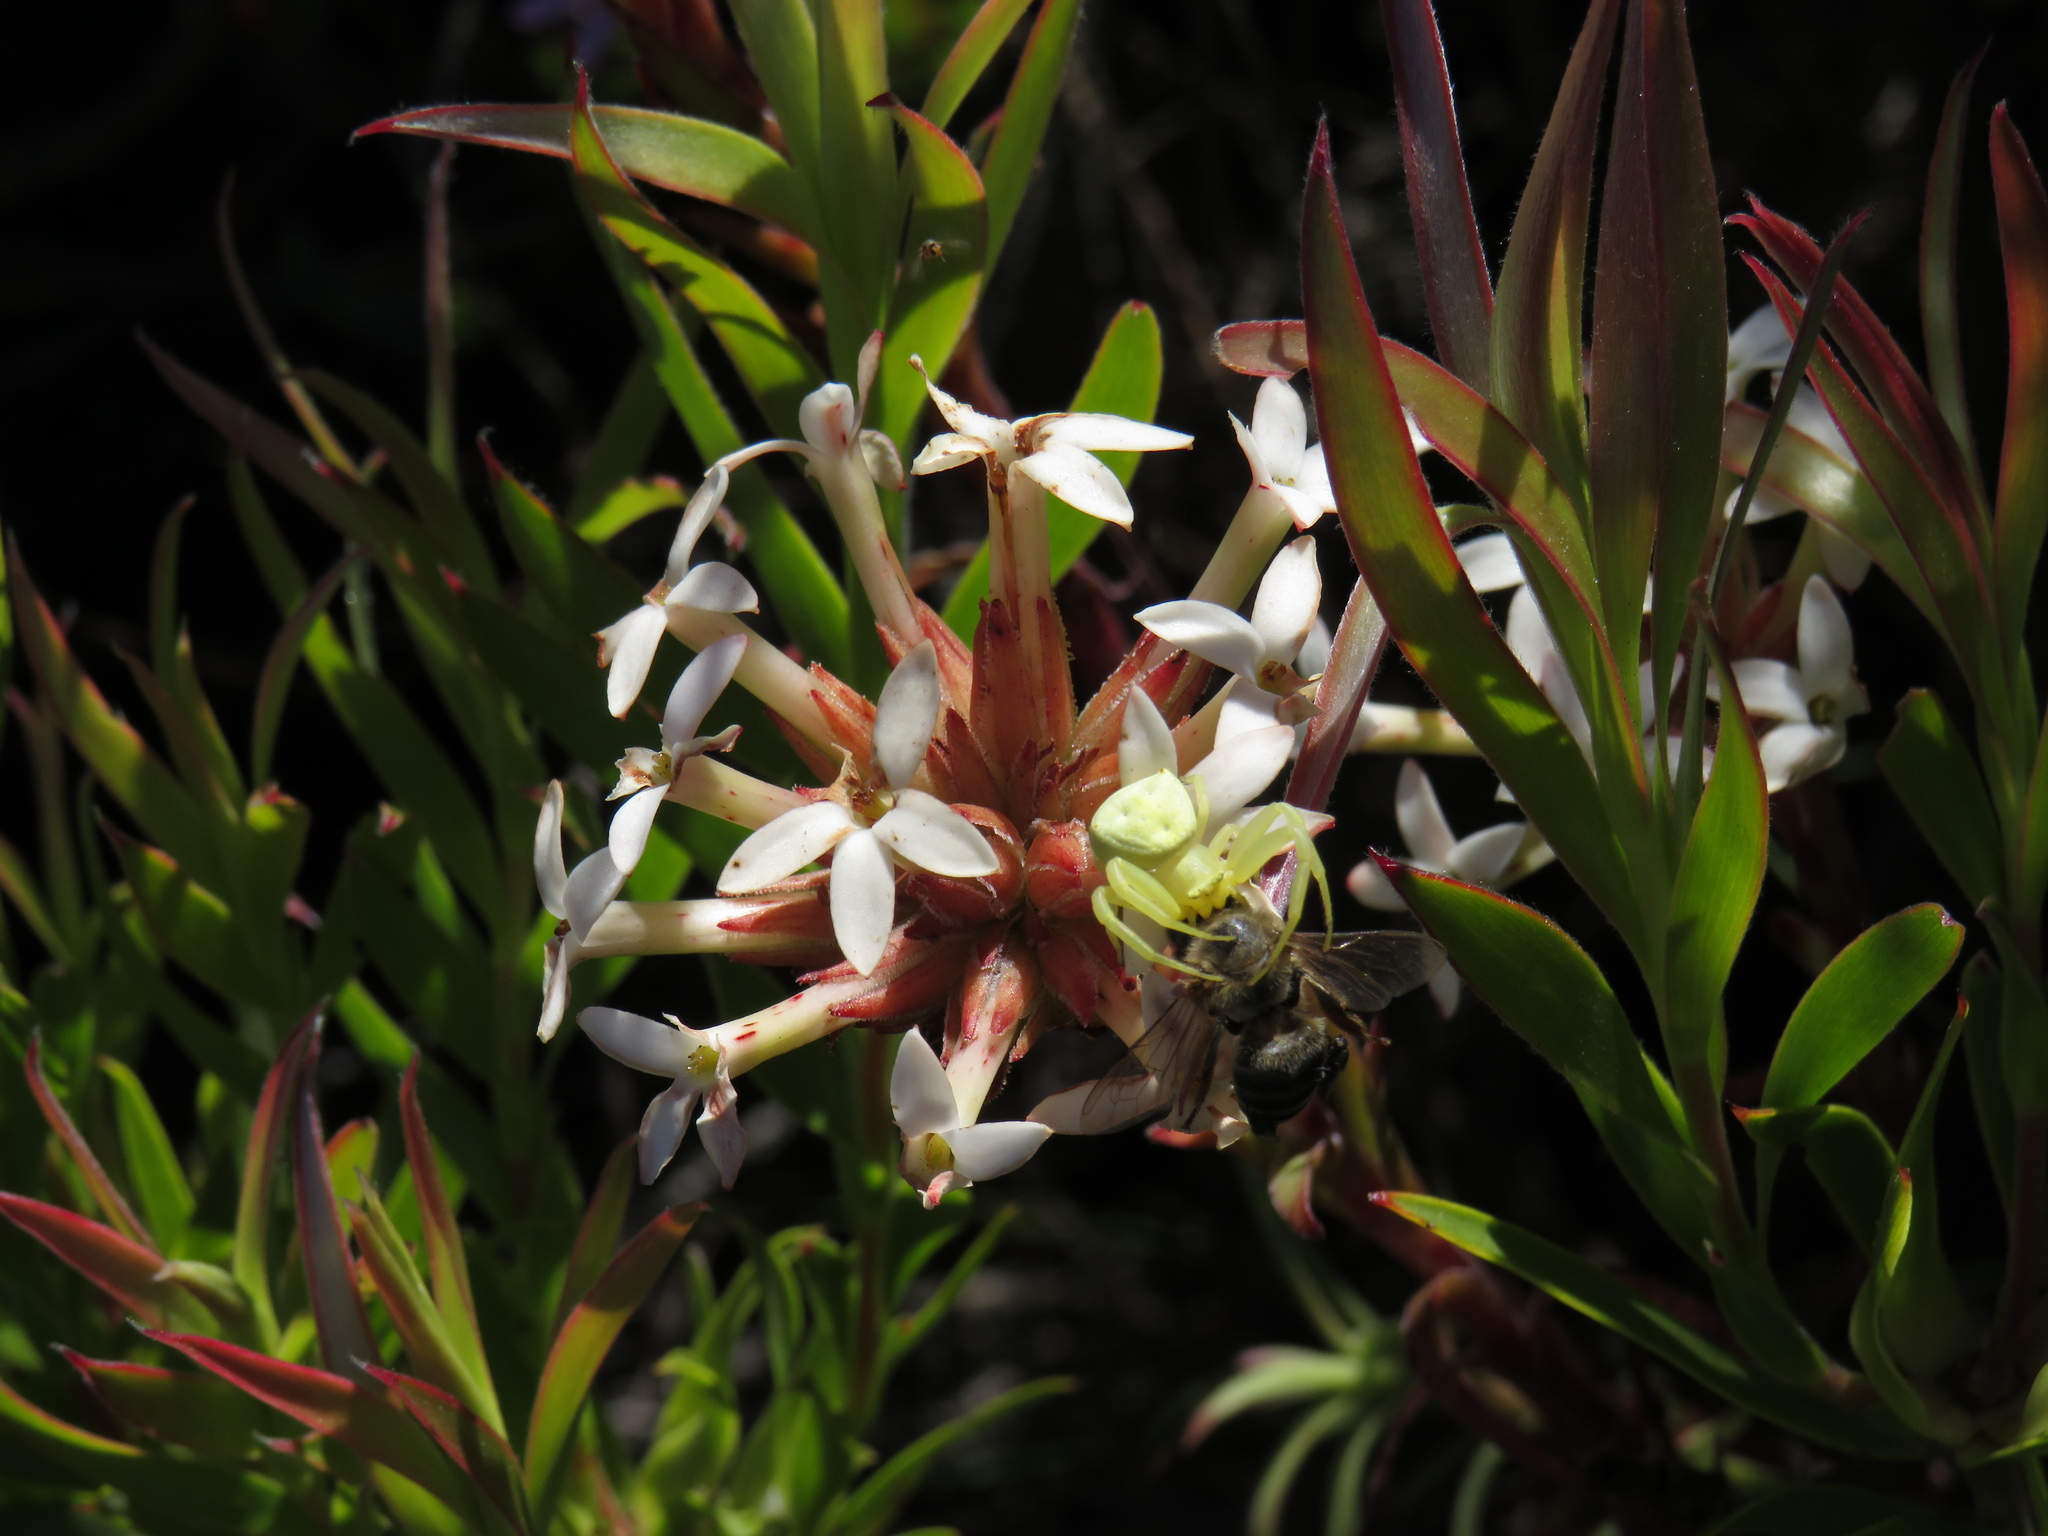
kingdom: Plantae
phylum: Tracheophyta
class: Magnoliopsida
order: Saxifragales
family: Crassulaceae
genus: Crassula
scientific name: Crassula fascicularis
